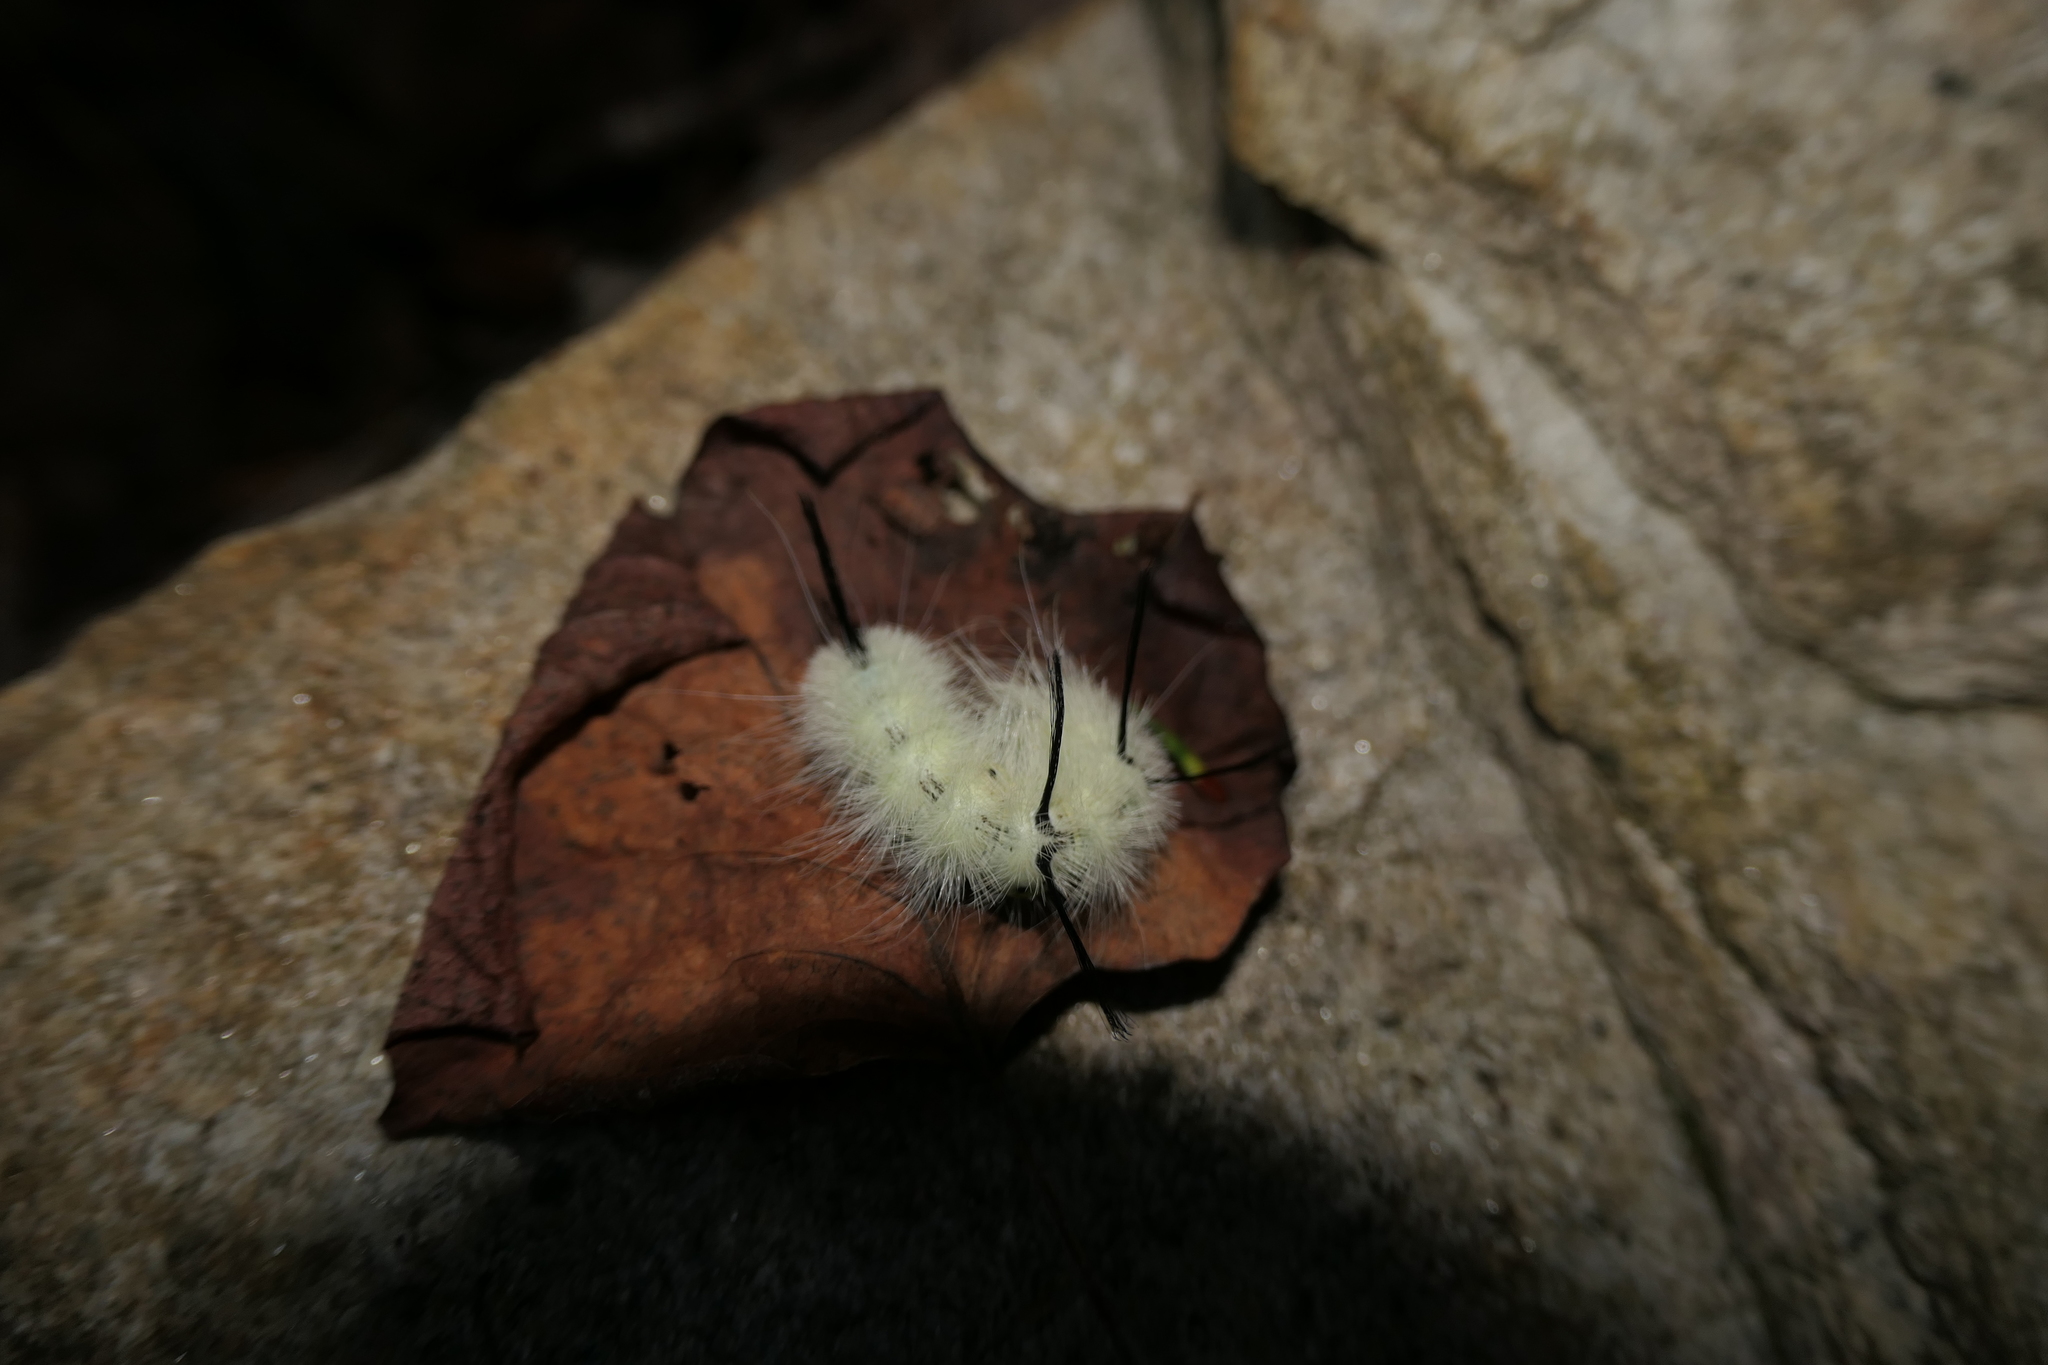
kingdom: Animalia
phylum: Arthropoda
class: Insecta
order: Lepidoptera
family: Noctuidae
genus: Acronicta
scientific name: Acronicta americana
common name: American dagger
